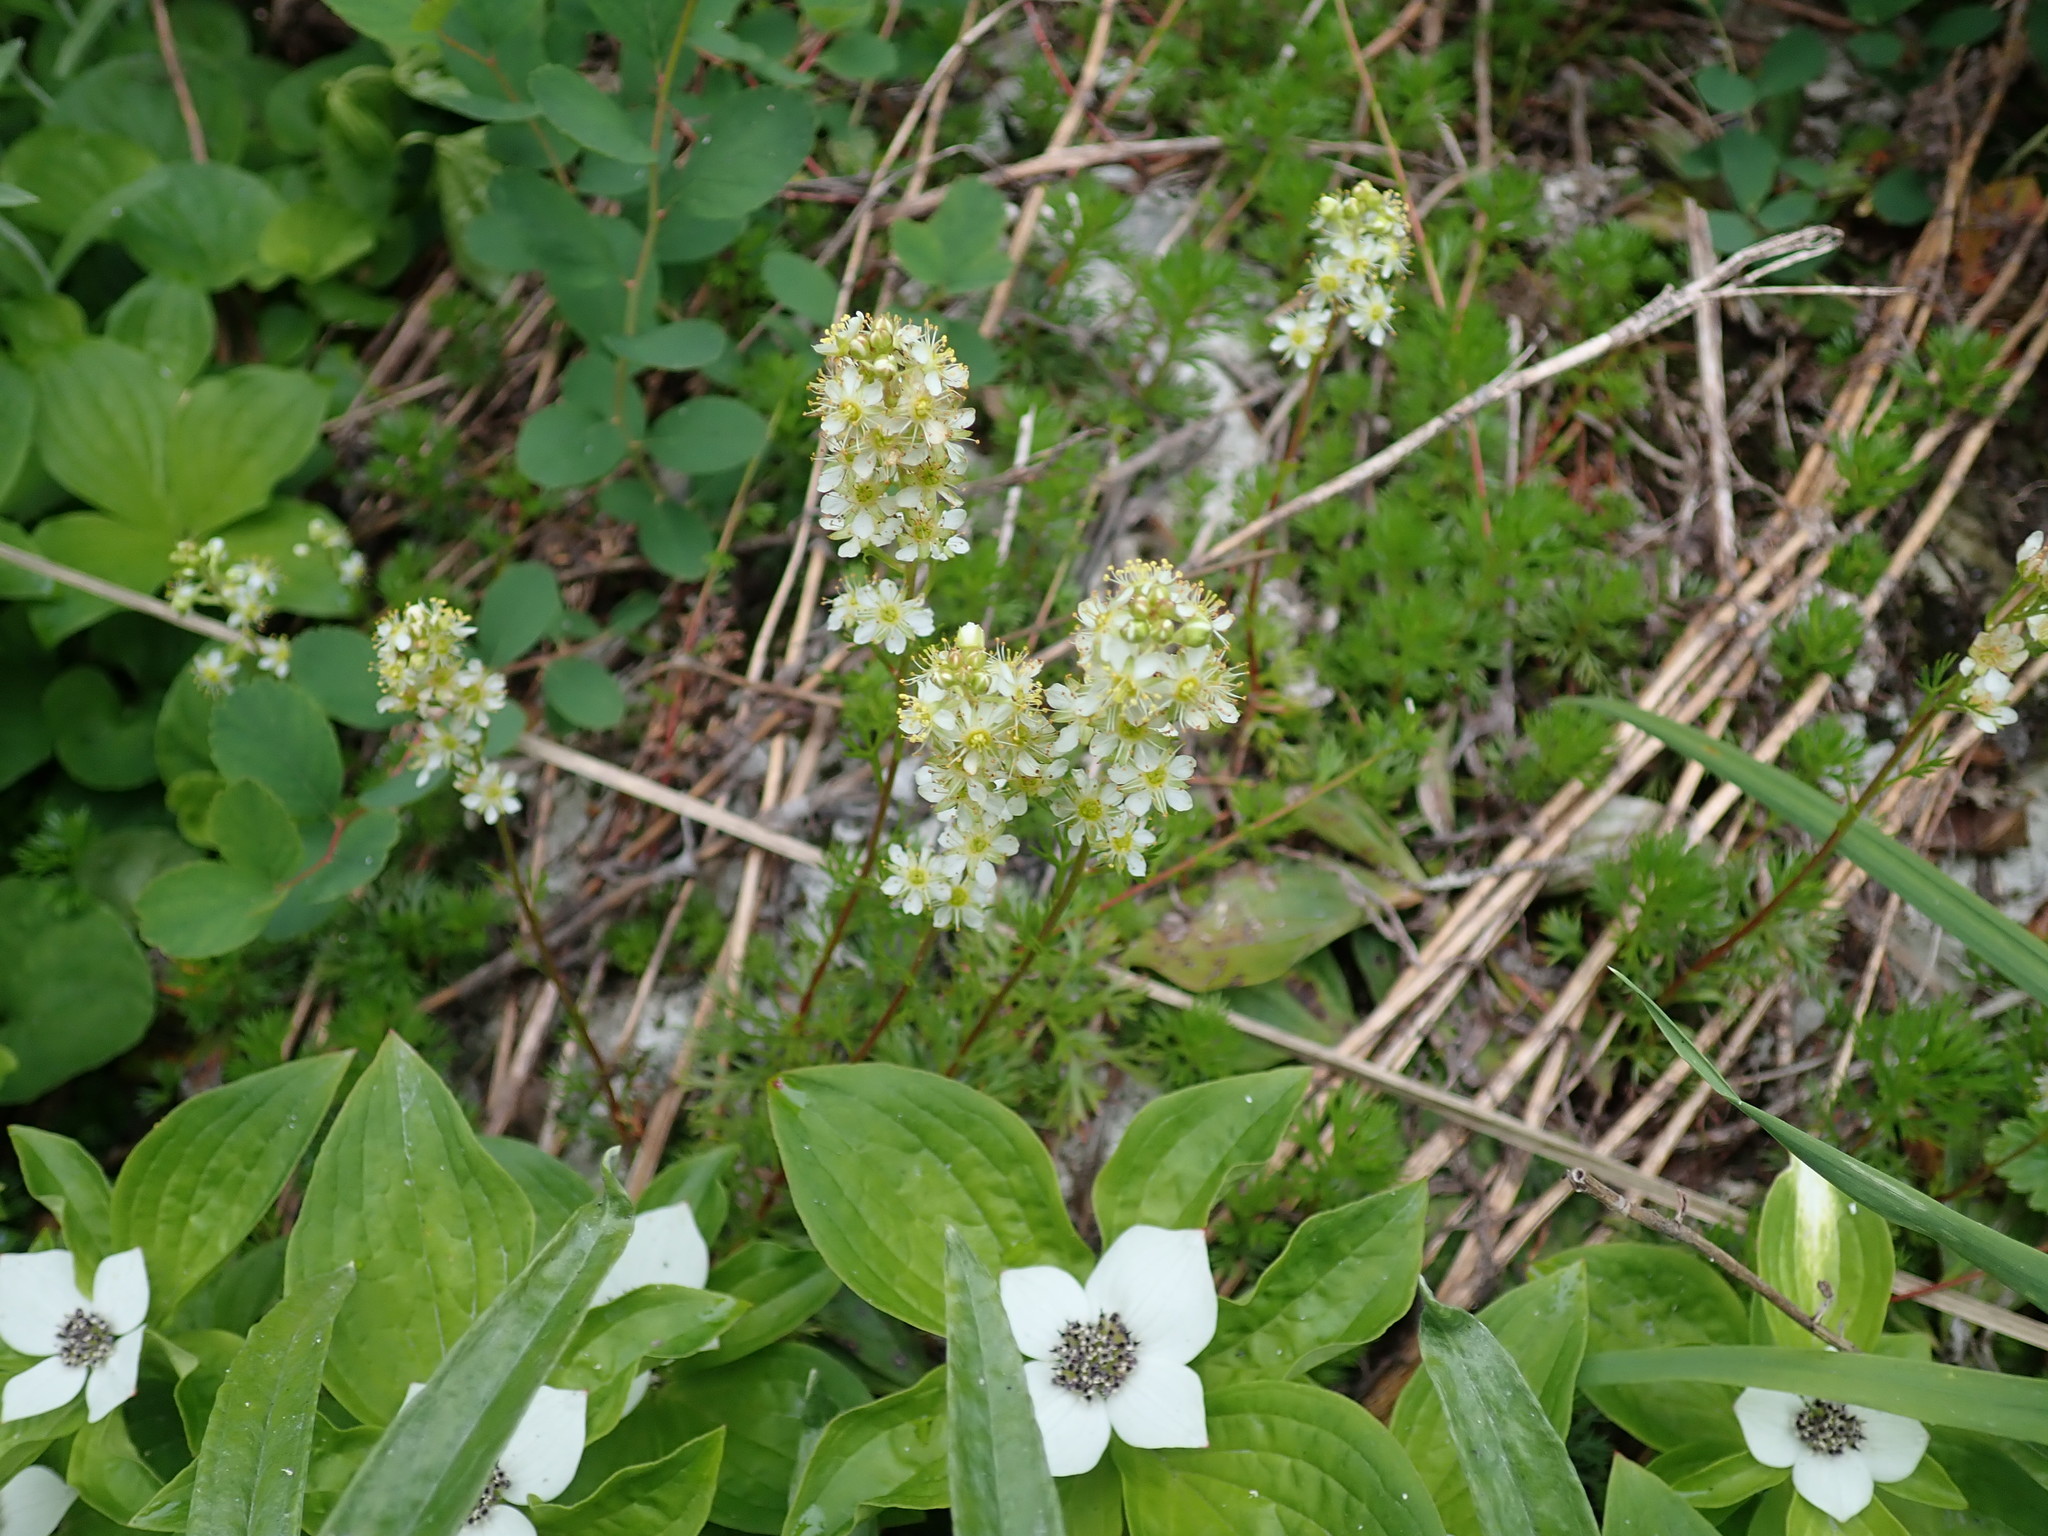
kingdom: Plantae
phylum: Tracheophyta
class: Magnoliopsida
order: Rosales
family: Rosaceae
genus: Luetkea
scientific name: Luetkea pectinata
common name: Partridgefoot
